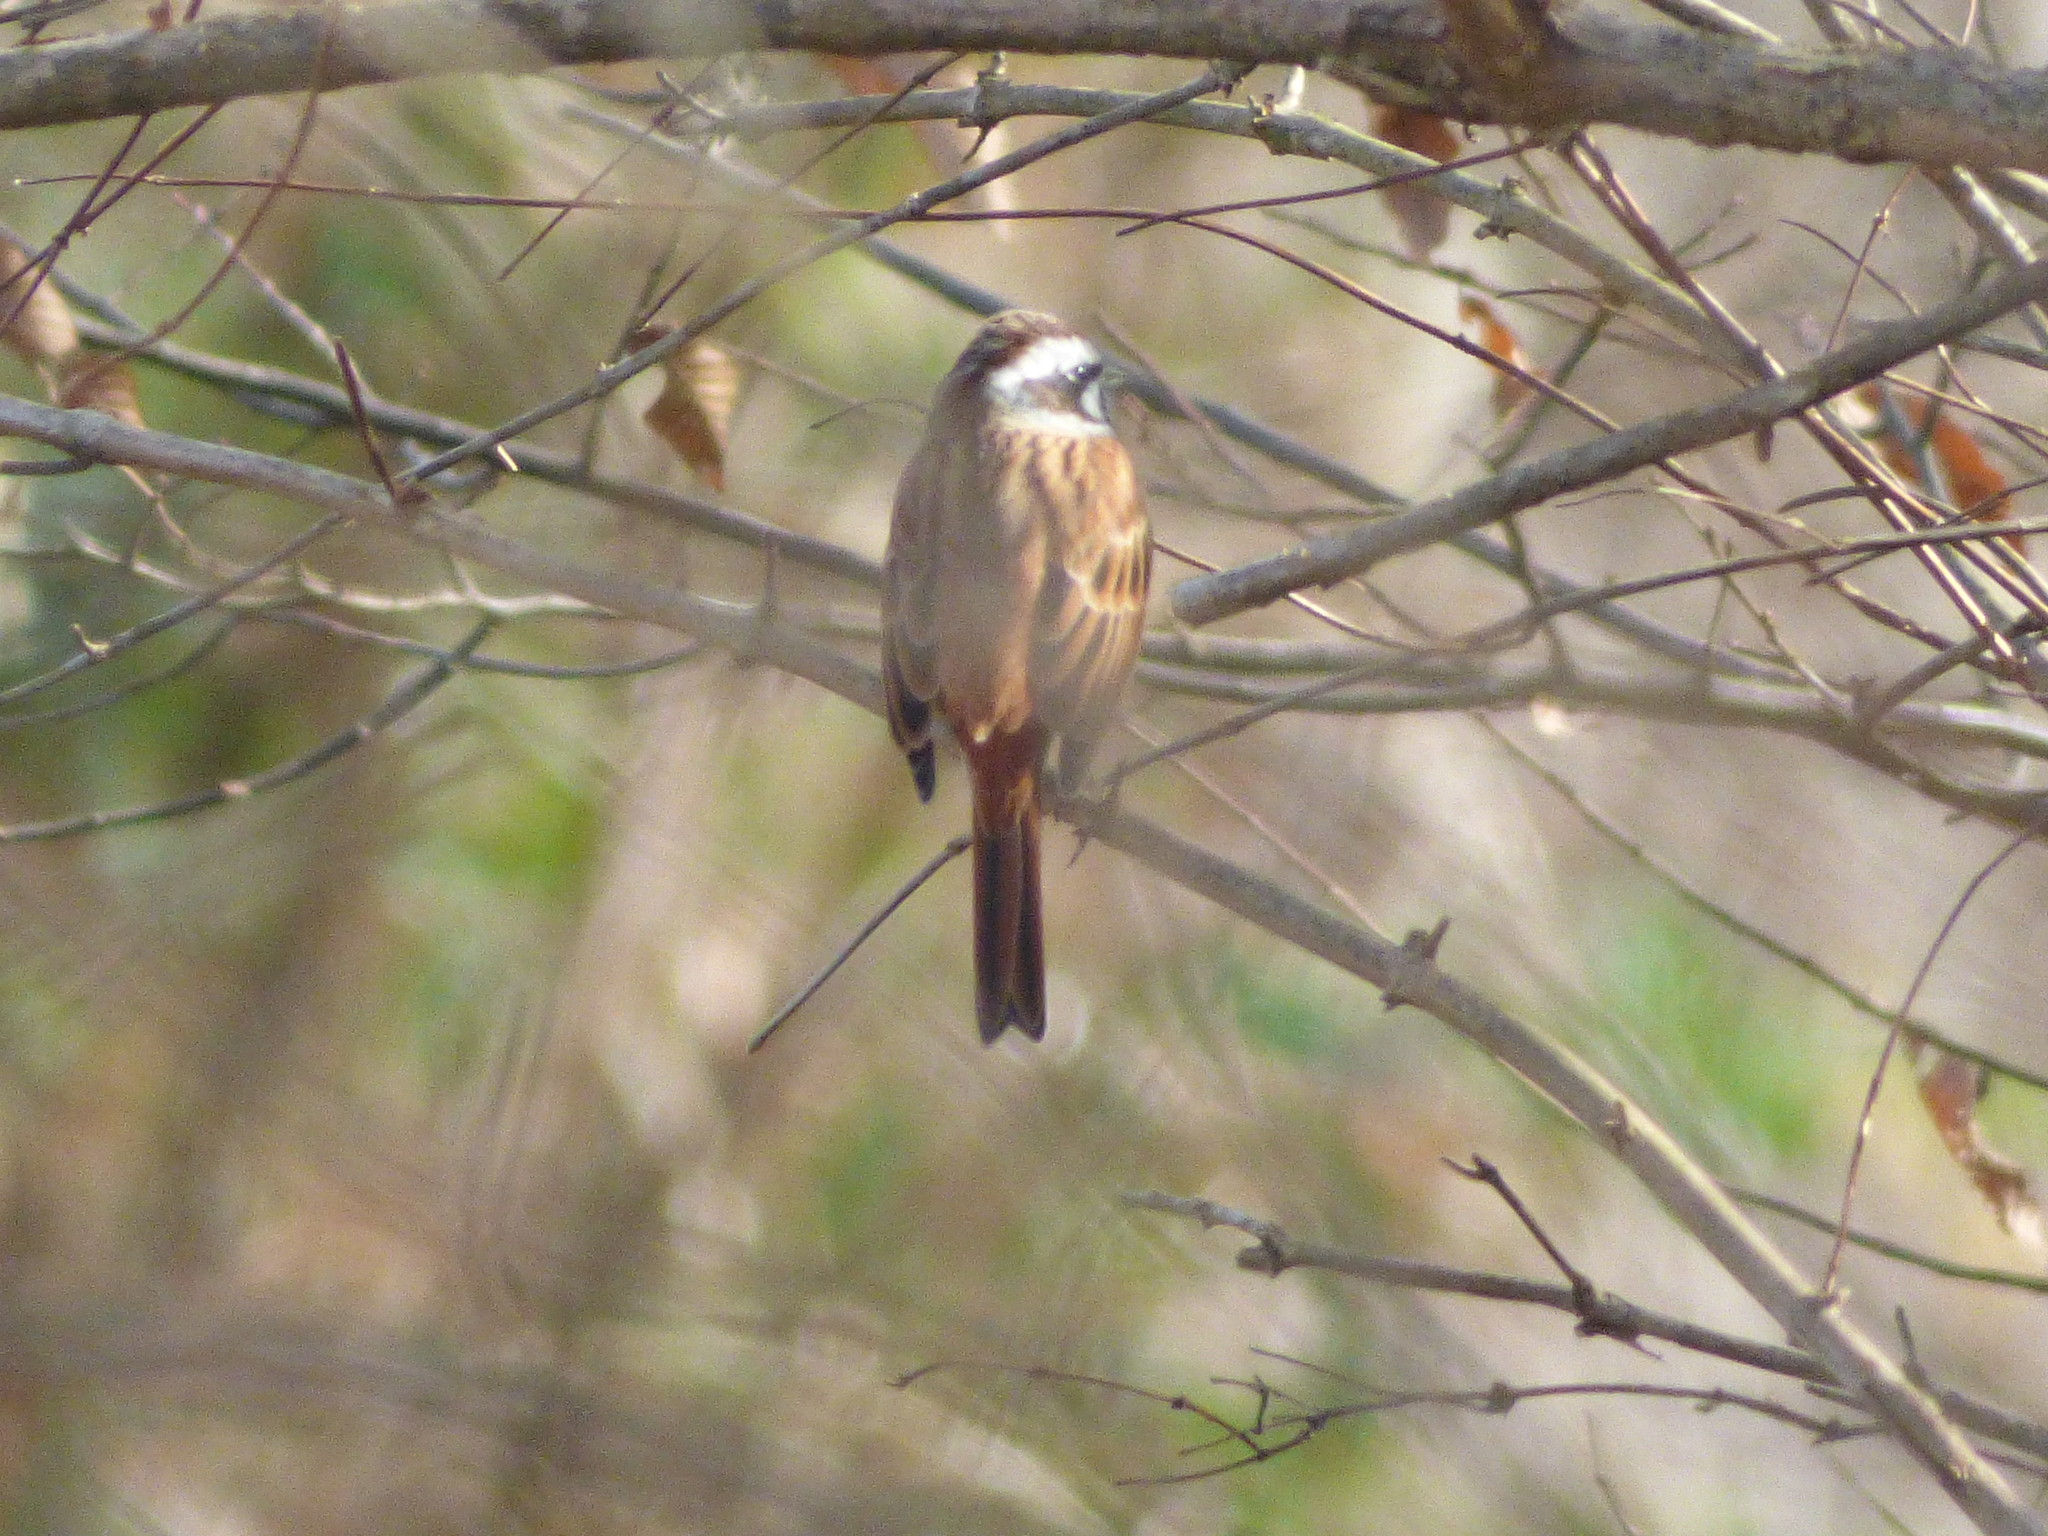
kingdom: Animalia
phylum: Chordata
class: Aves
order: Passeriformes
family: Emberizidae
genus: Emberiza
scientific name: Emberiza cioides
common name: Meadow bunting
